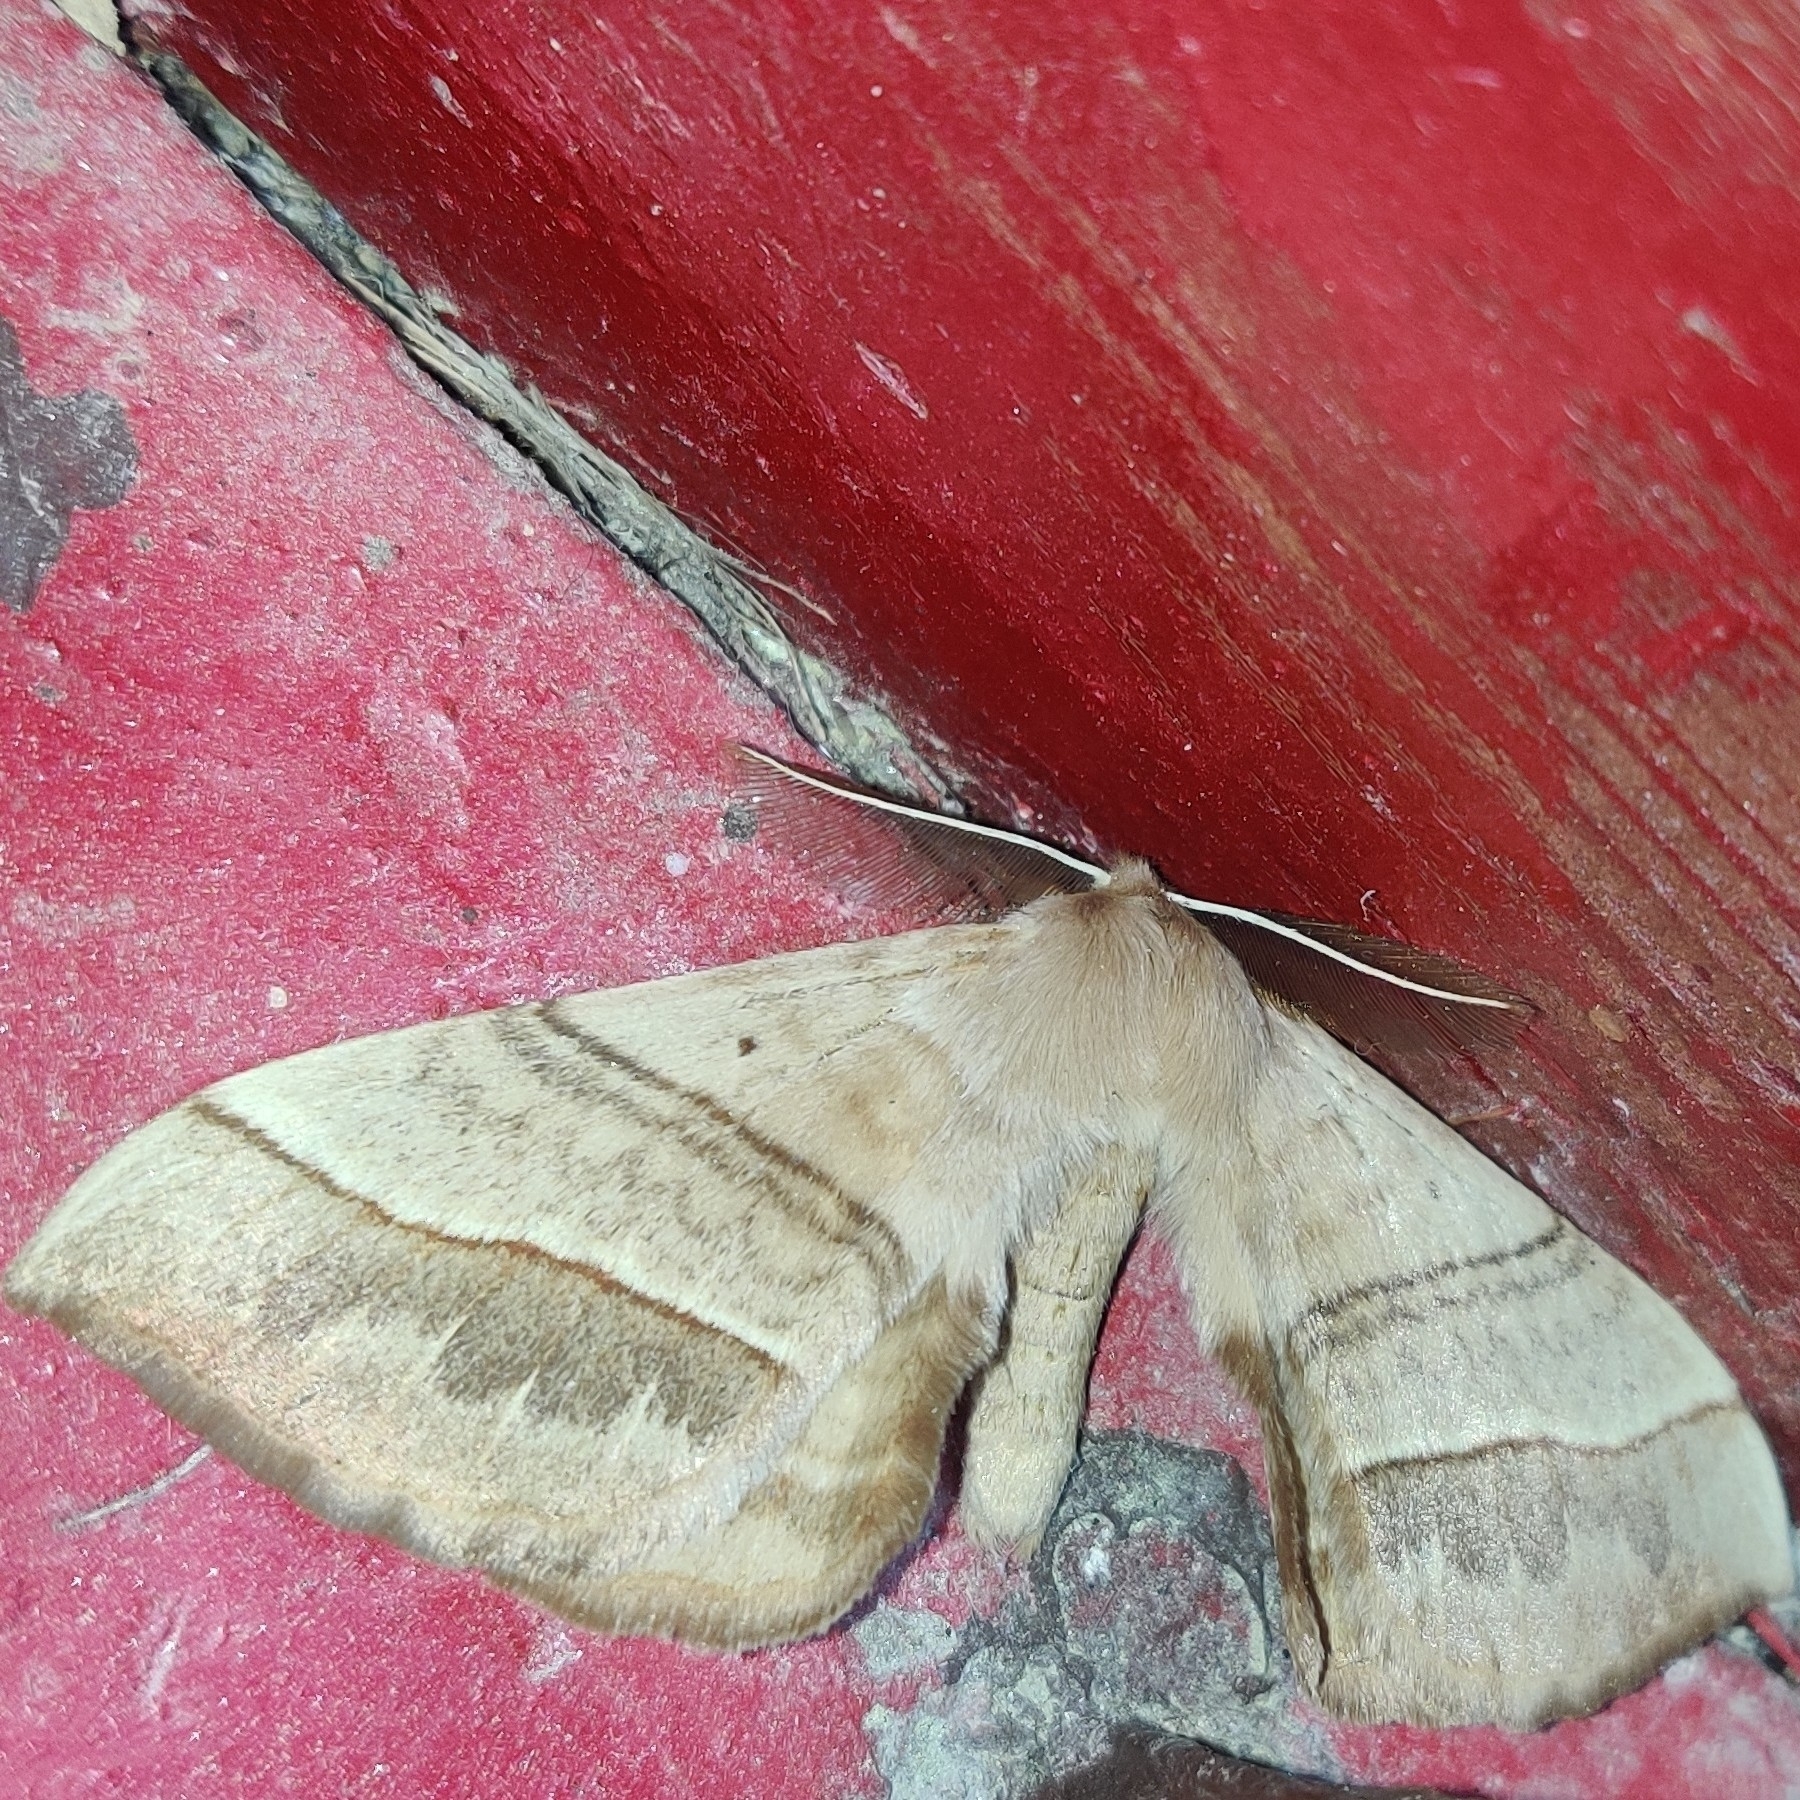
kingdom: Animalia
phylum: Arthropoda
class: Insecta
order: Lepidoptera
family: Eupterotidae
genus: Apona
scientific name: Apona caschmirensis
